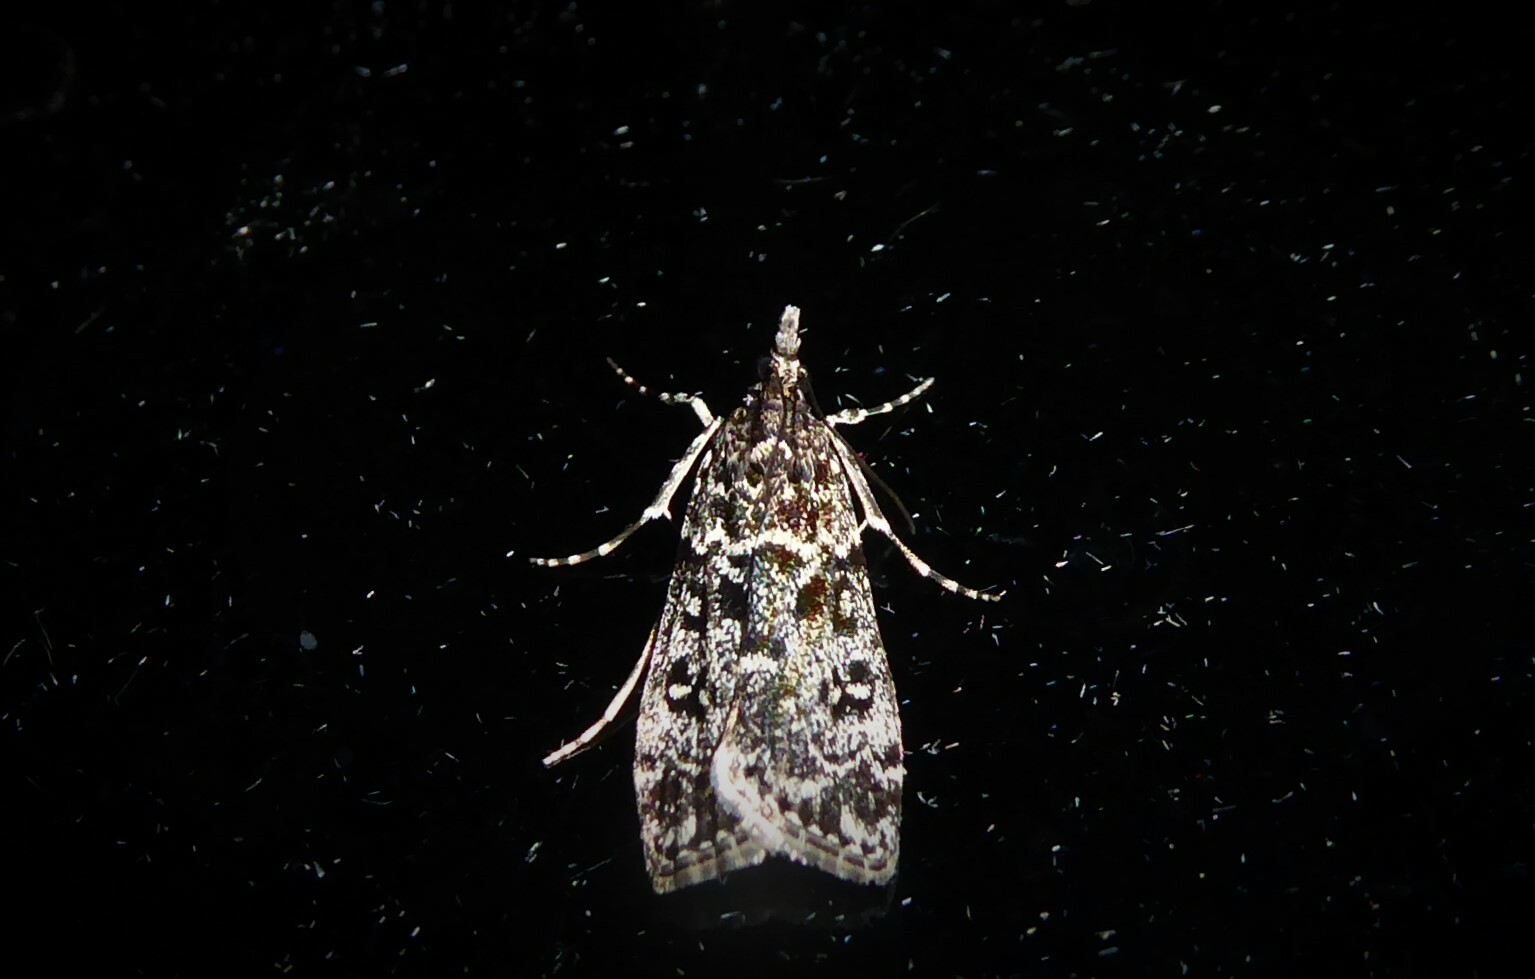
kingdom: Animalia
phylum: Arthropoda
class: Insecta
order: Lepidoptera
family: Crambidae
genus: Eudonia
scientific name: Eudonia philerga
